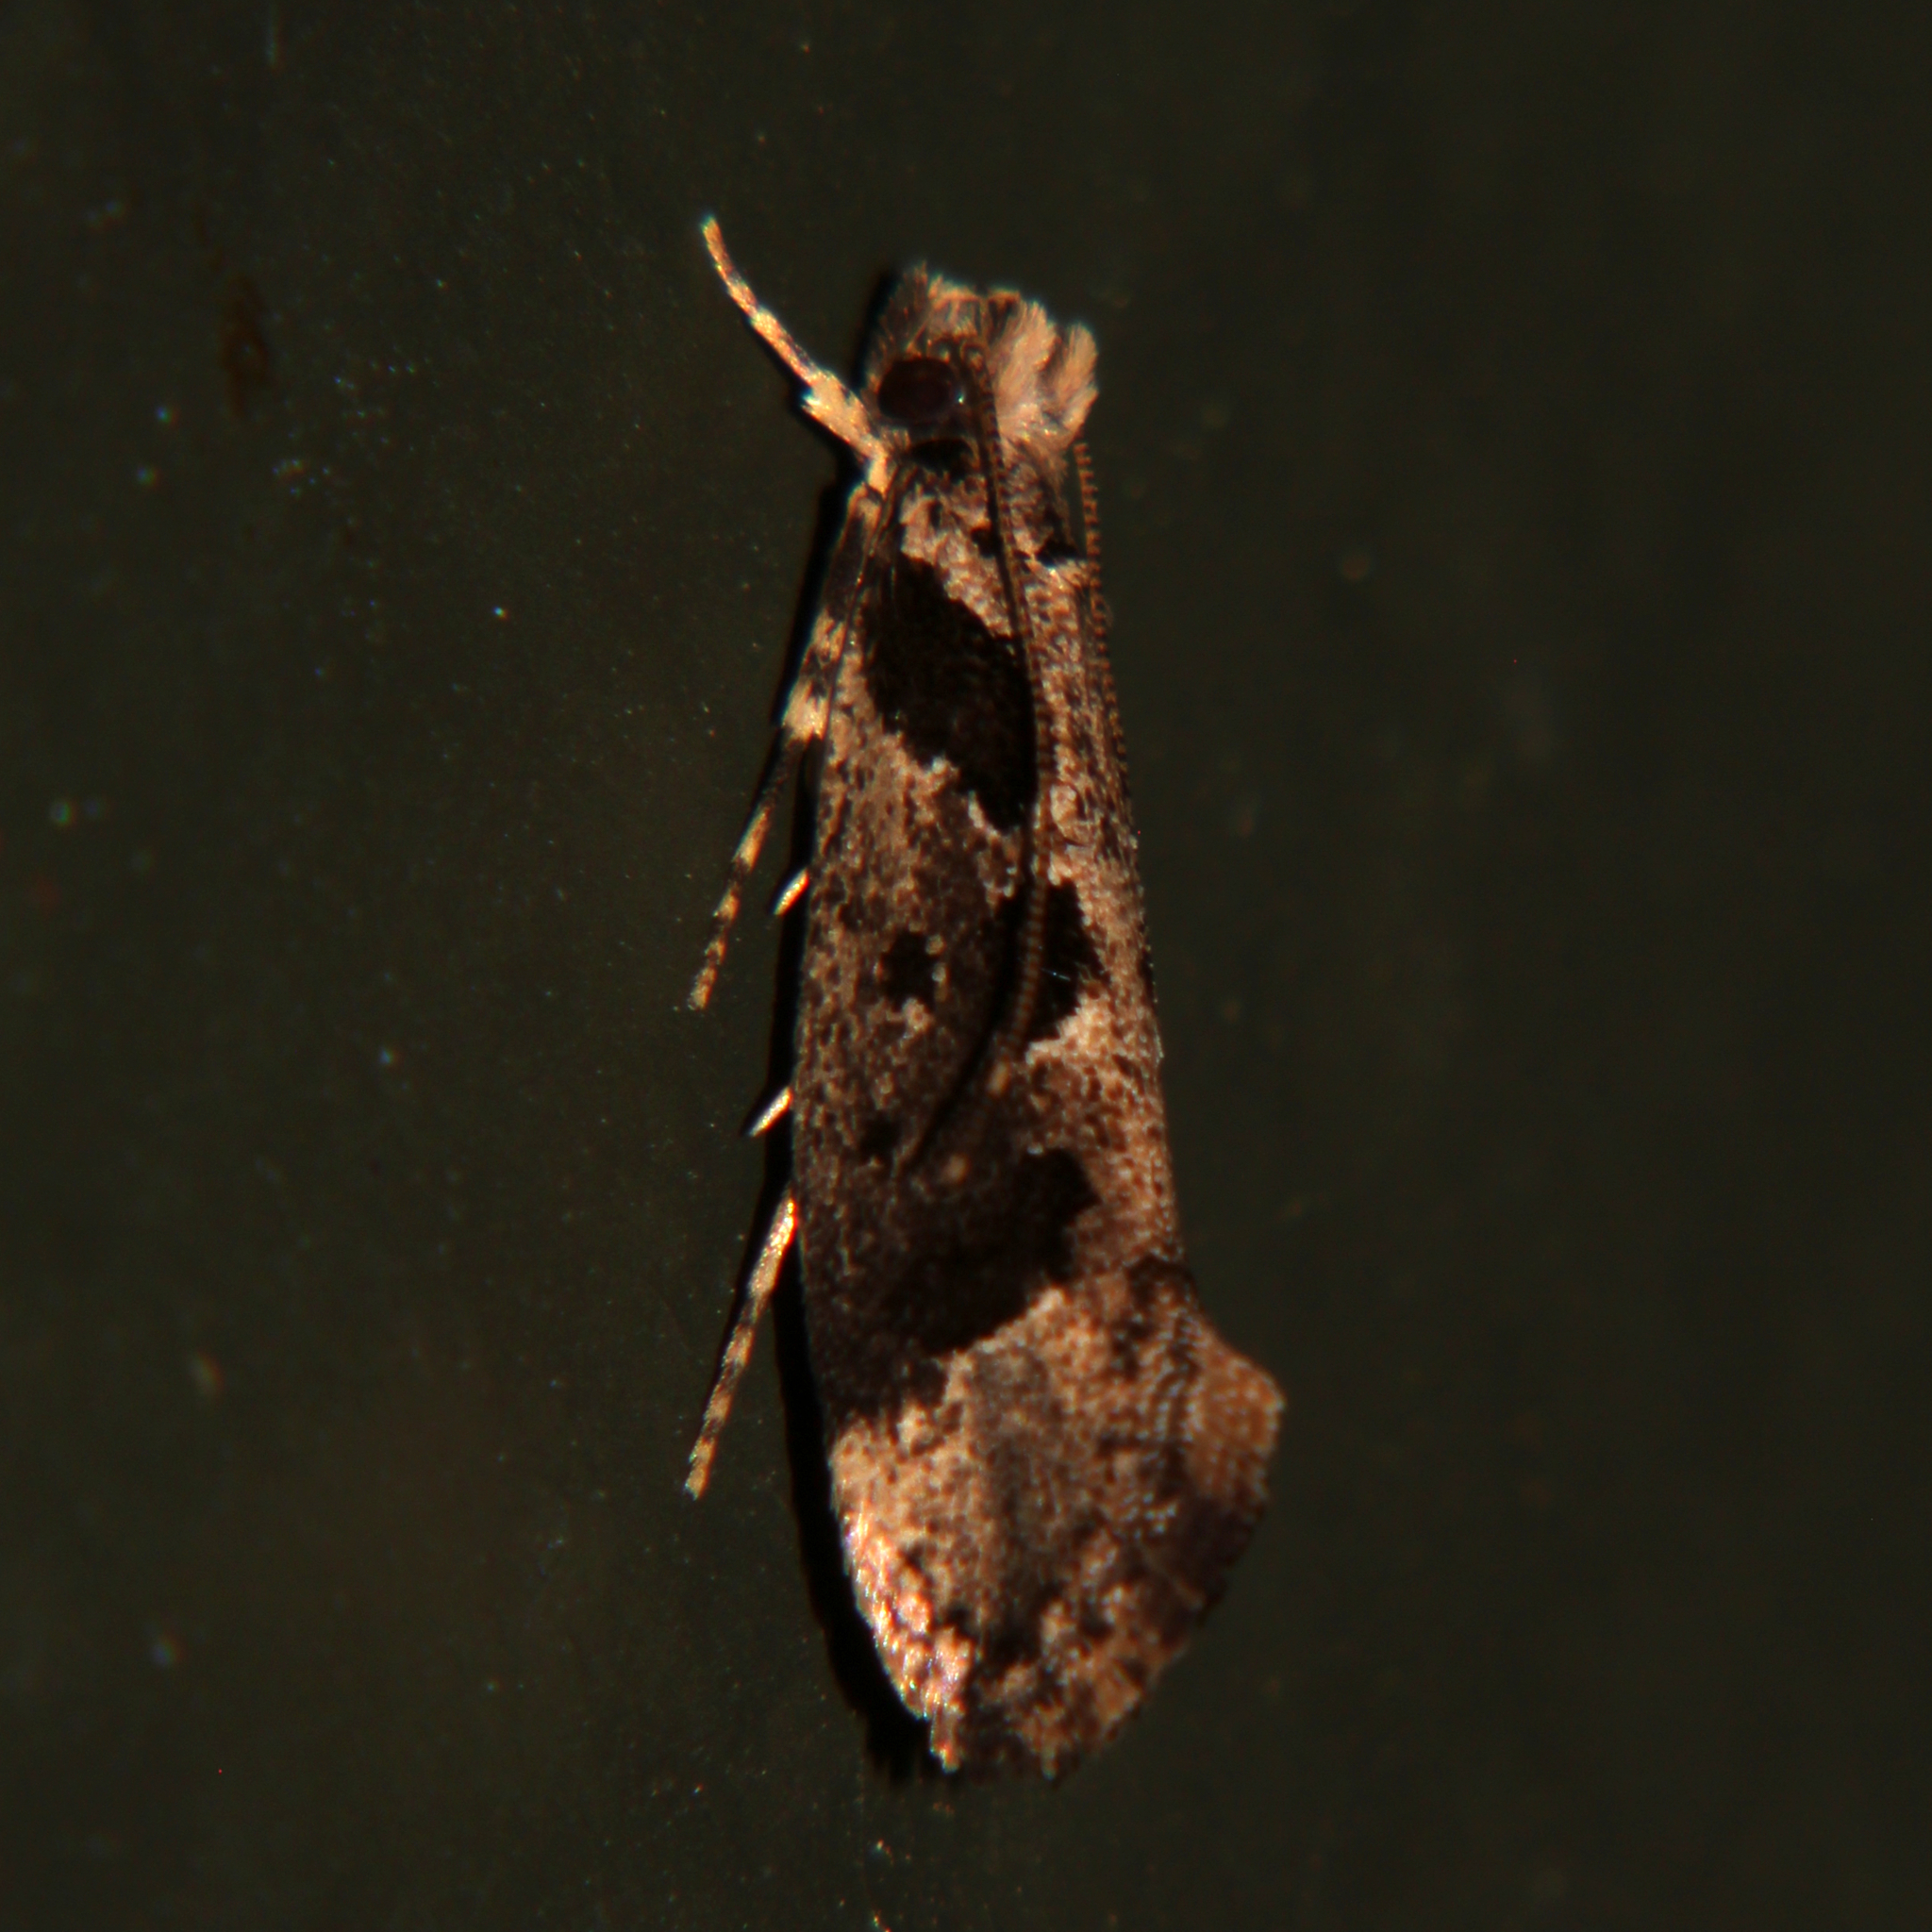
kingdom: Animalia
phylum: Arthropoda
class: Insecta
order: Lepidoptera
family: Tineidae
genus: Erechthias
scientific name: Erechthias capnitis
